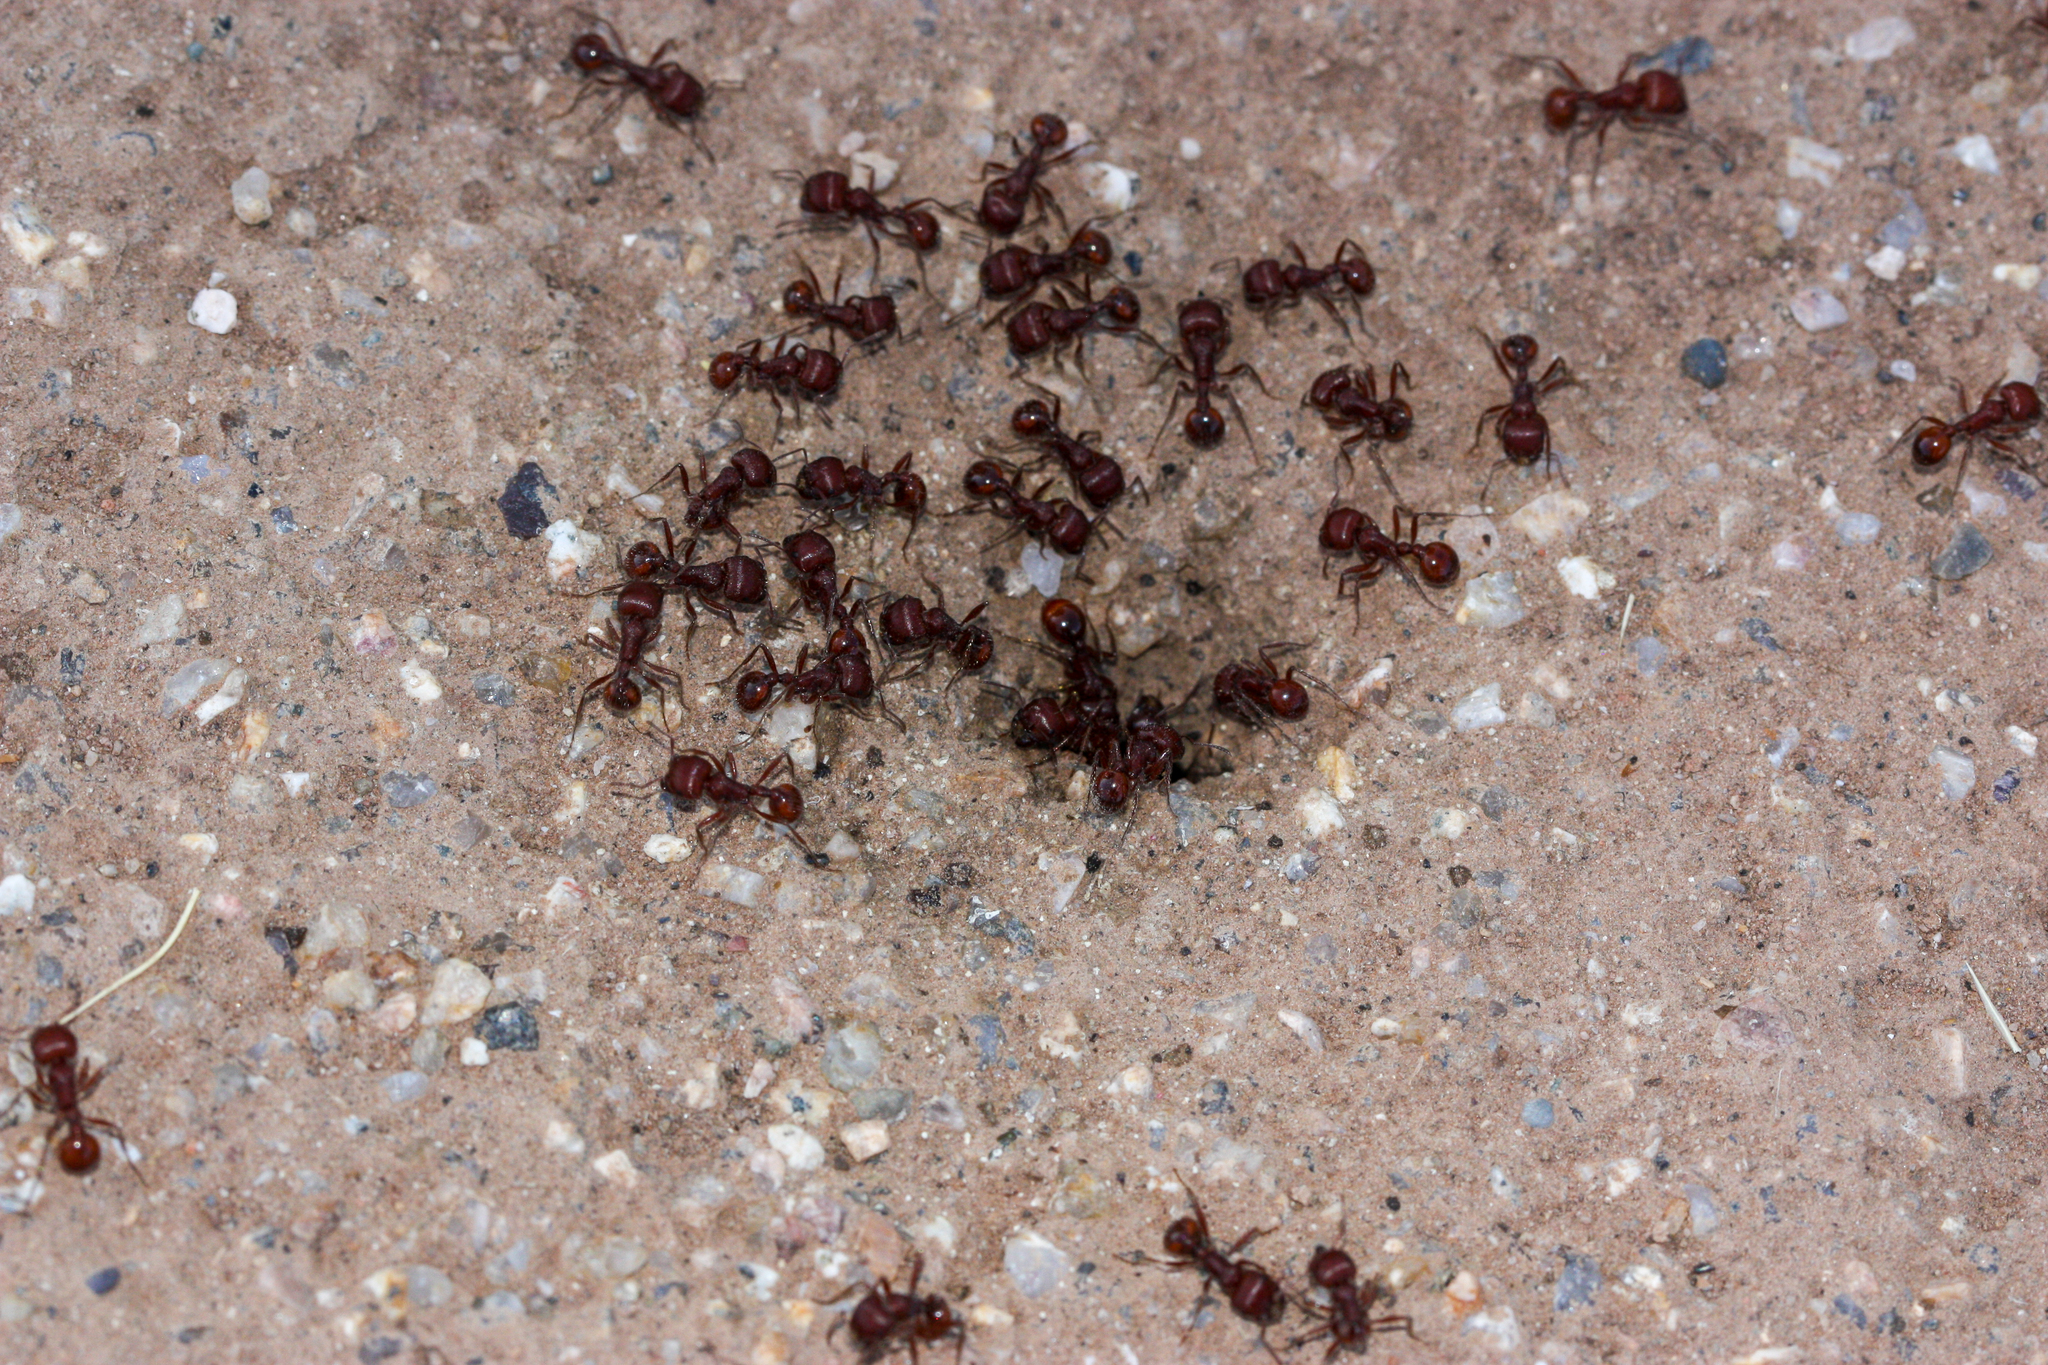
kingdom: Animalia
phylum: Arthropoda
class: Insecta
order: Hymenoptera
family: Formicidae
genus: Pogonomyrmex
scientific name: Pogonomyrmex barbatus
